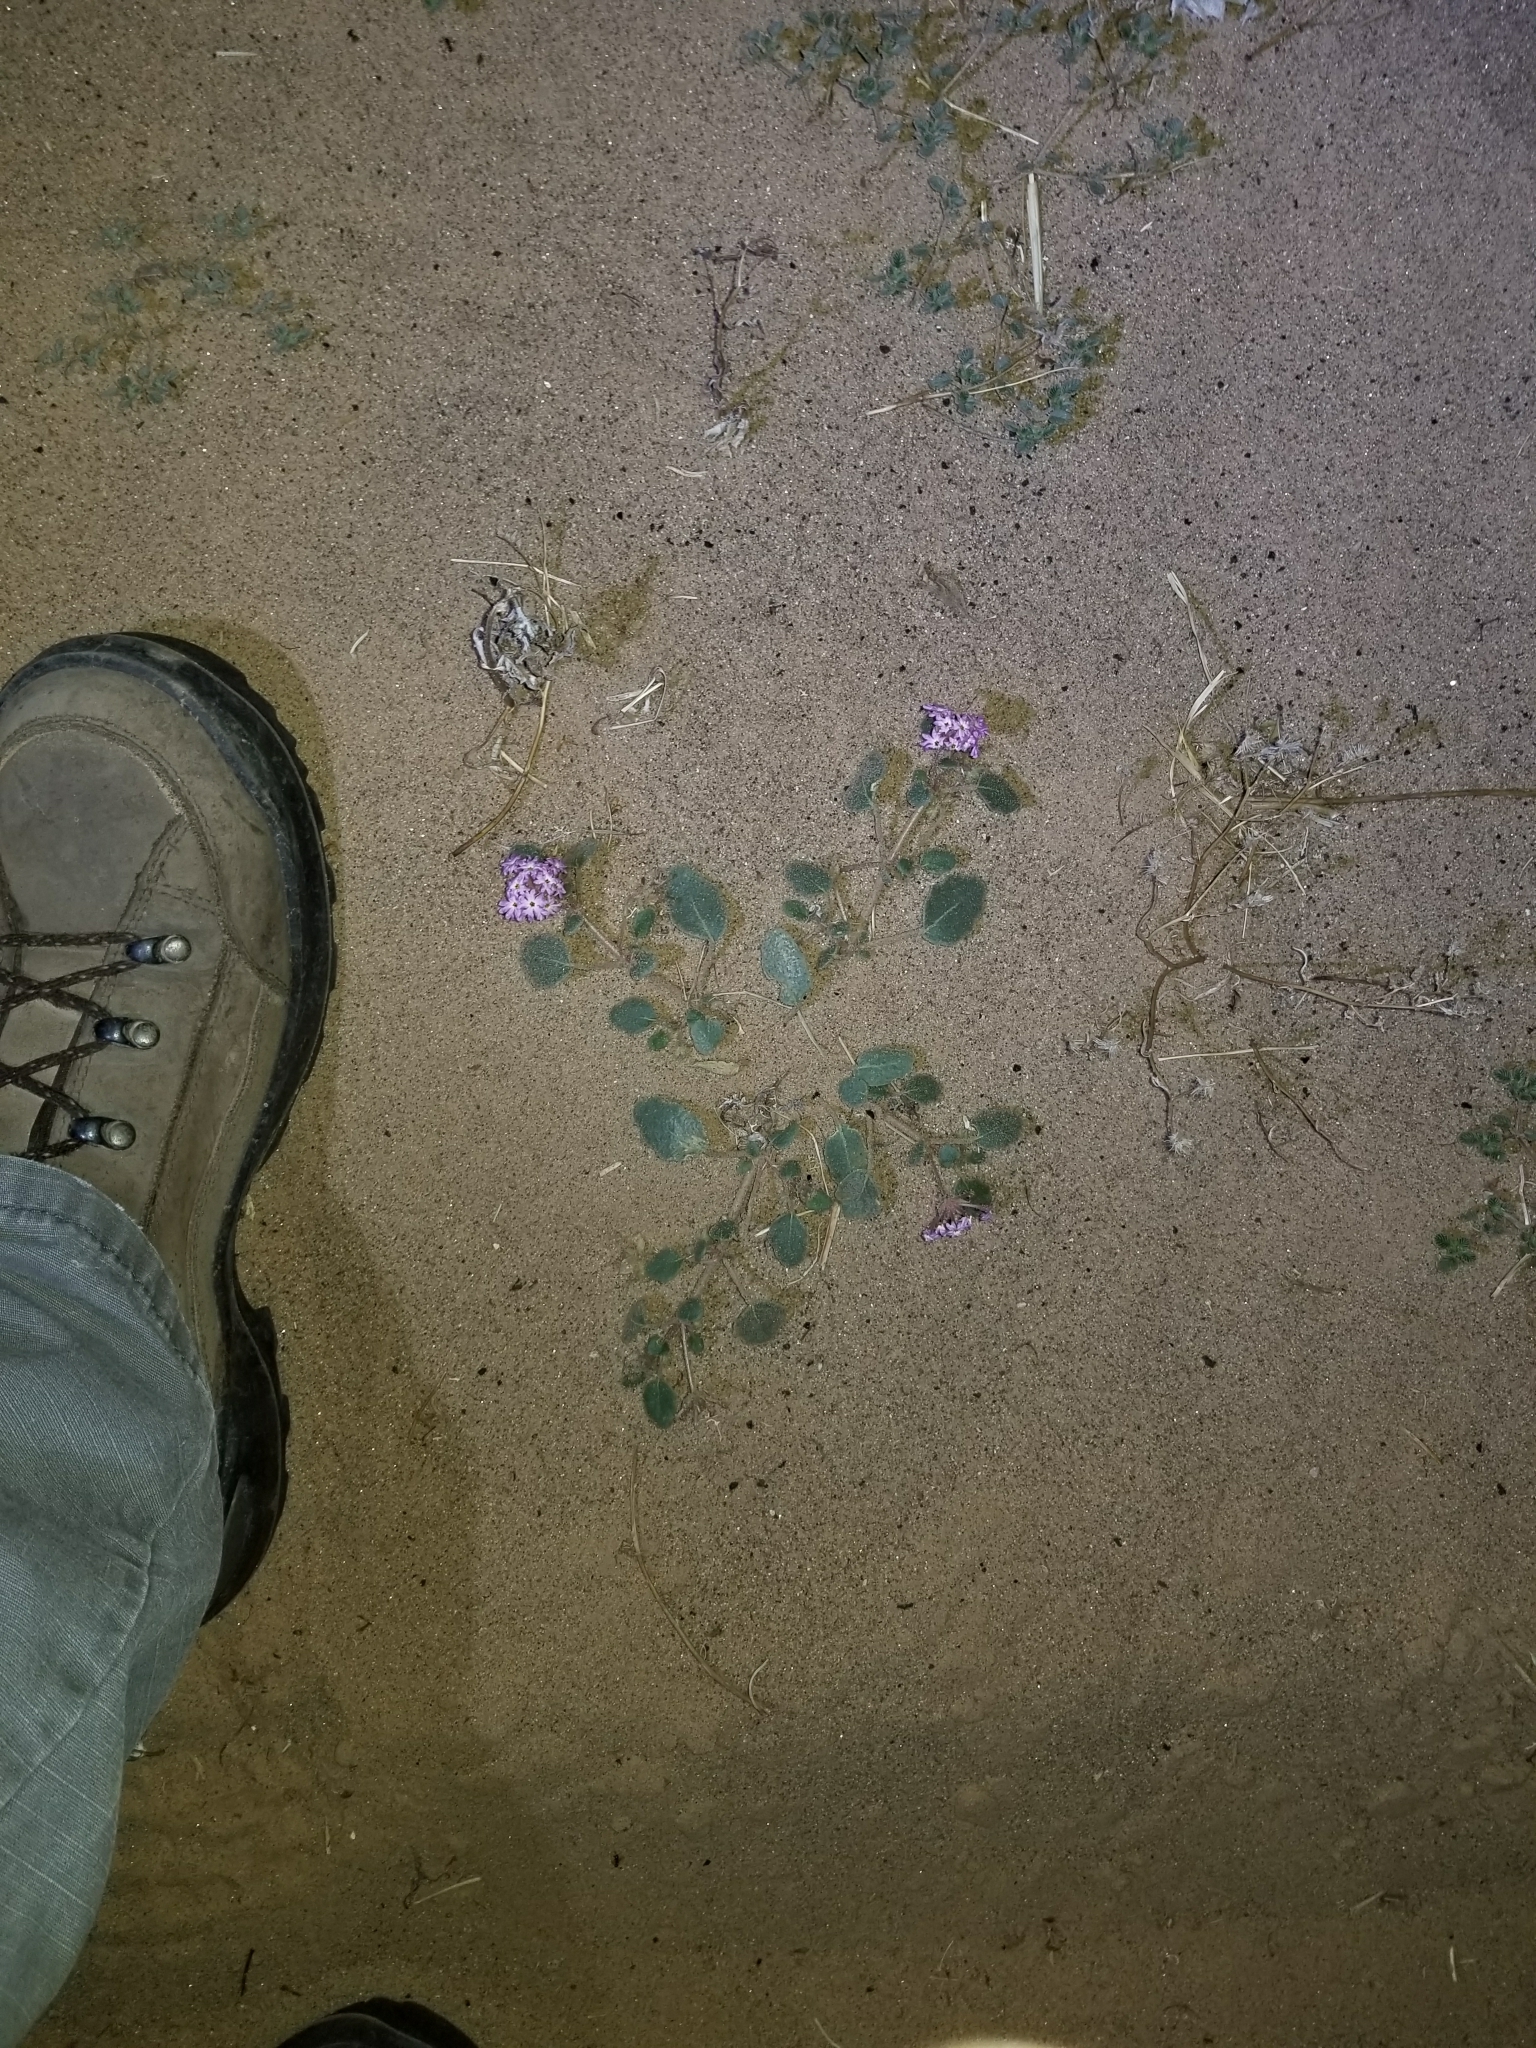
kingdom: Plantae
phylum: Tracheophyta
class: Magnoliopsida
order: Caryophyllales
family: Nyctaginaceae
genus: Abronia
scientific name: Abronia villosa
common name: Desert sand-verbena
